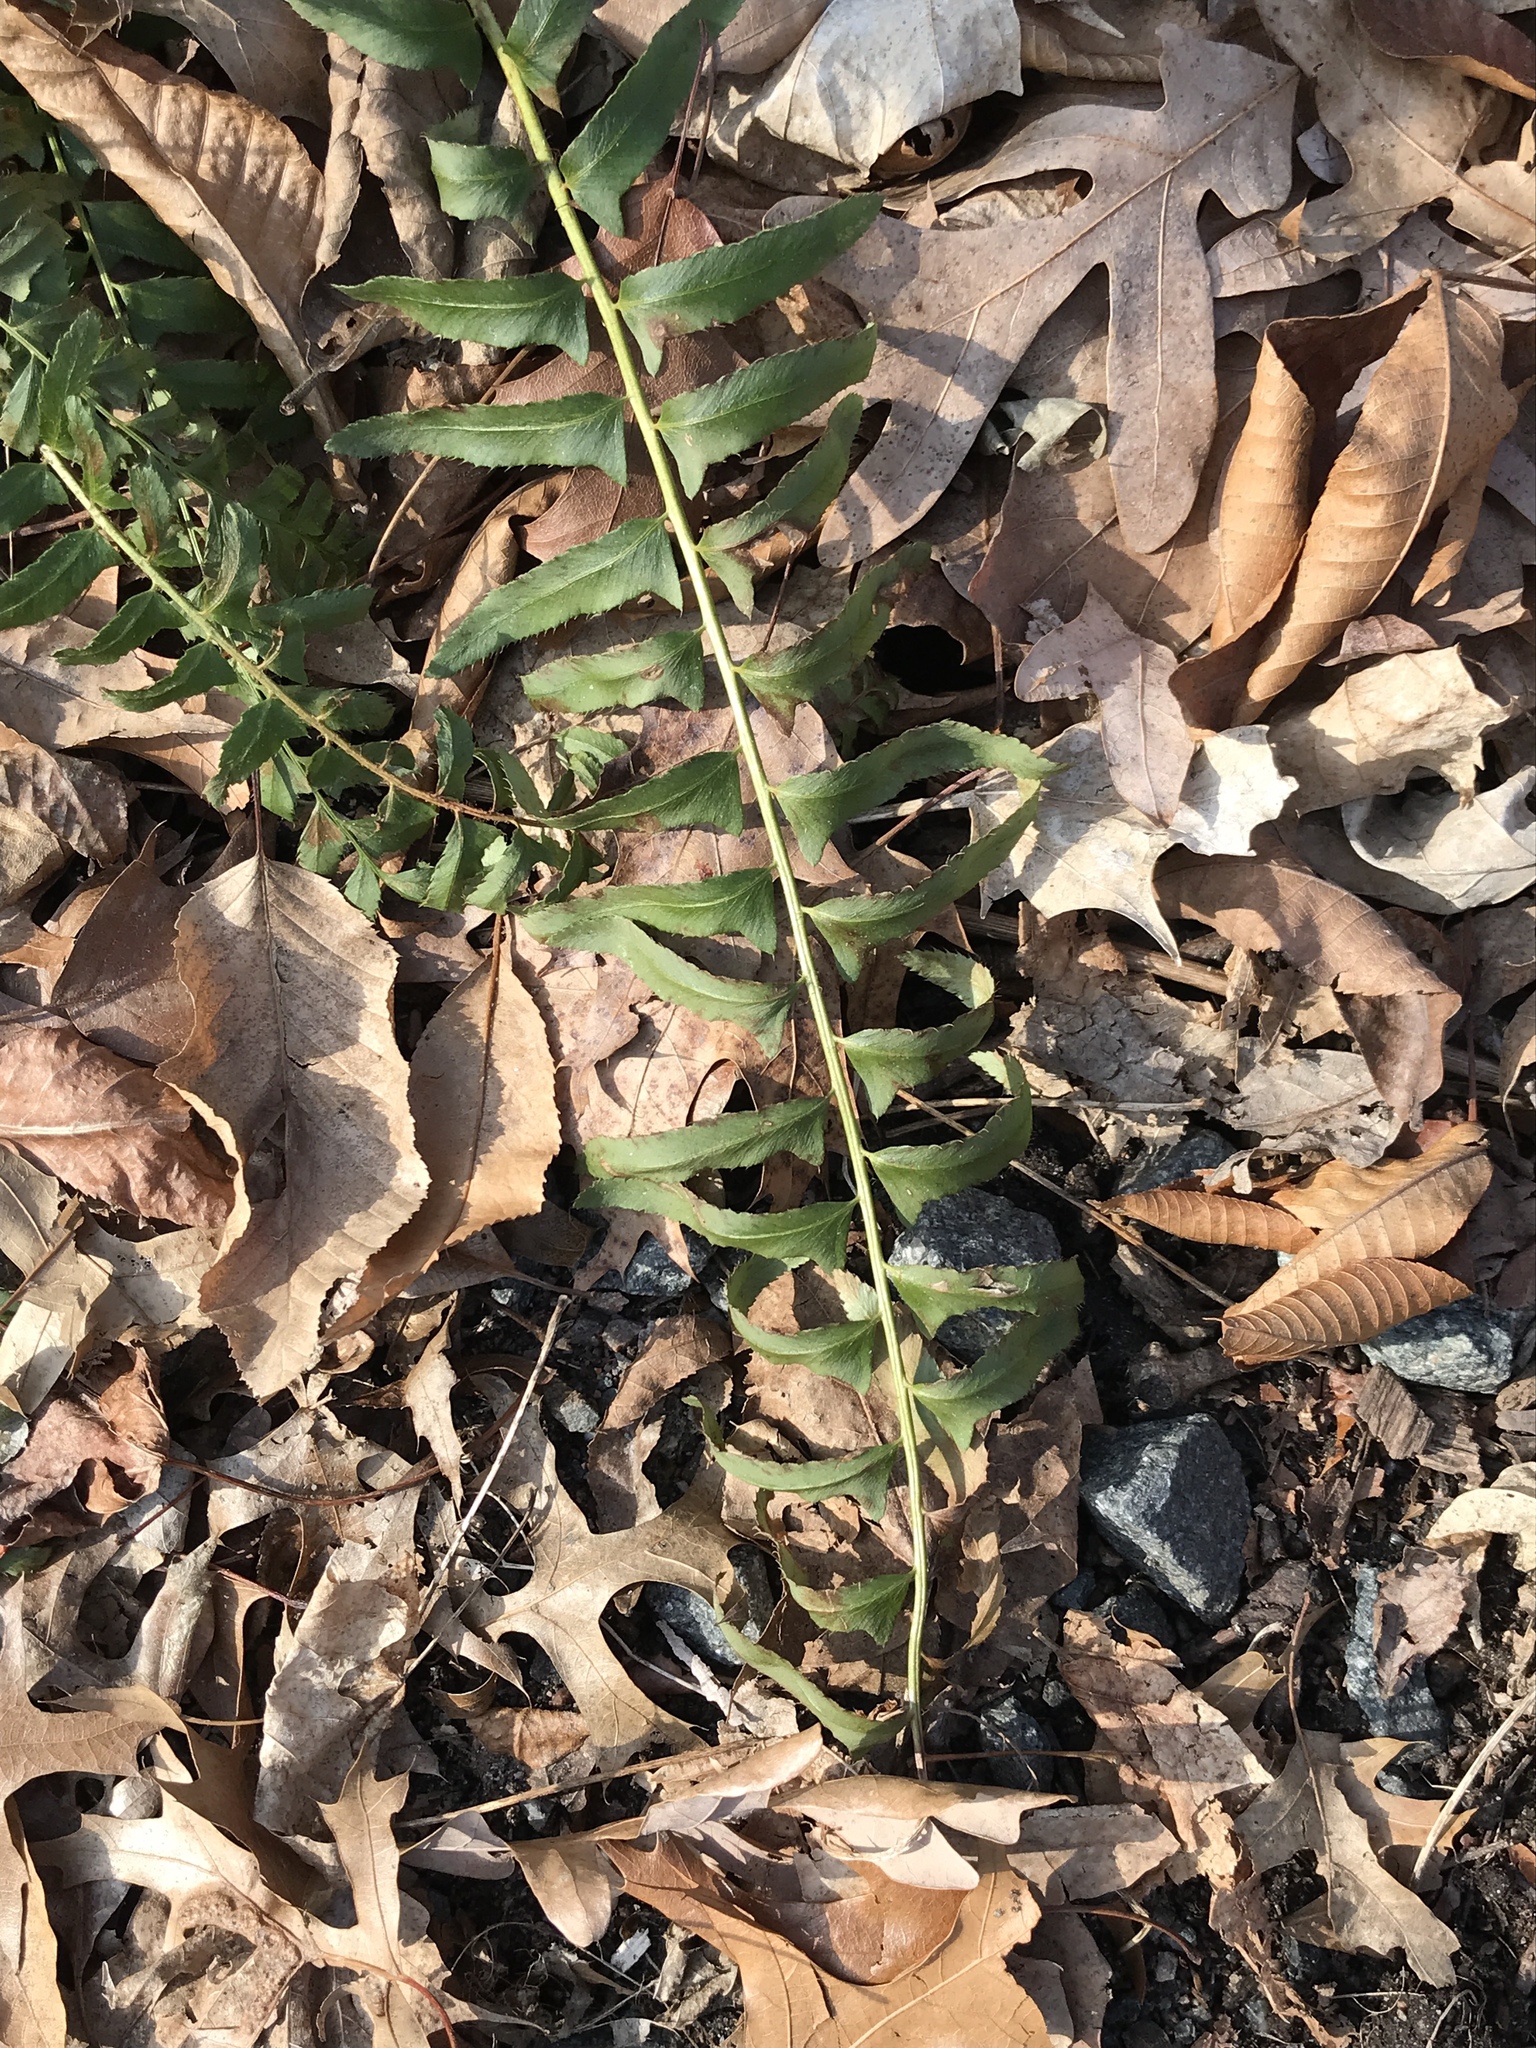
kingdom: Plantae
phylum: Tracheophyta
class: Polypodiopsida
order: Polypodiales
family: Dryopteridaceae
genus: Polystichum
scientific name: Polystichum acrostichoides
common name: Christmas fern
